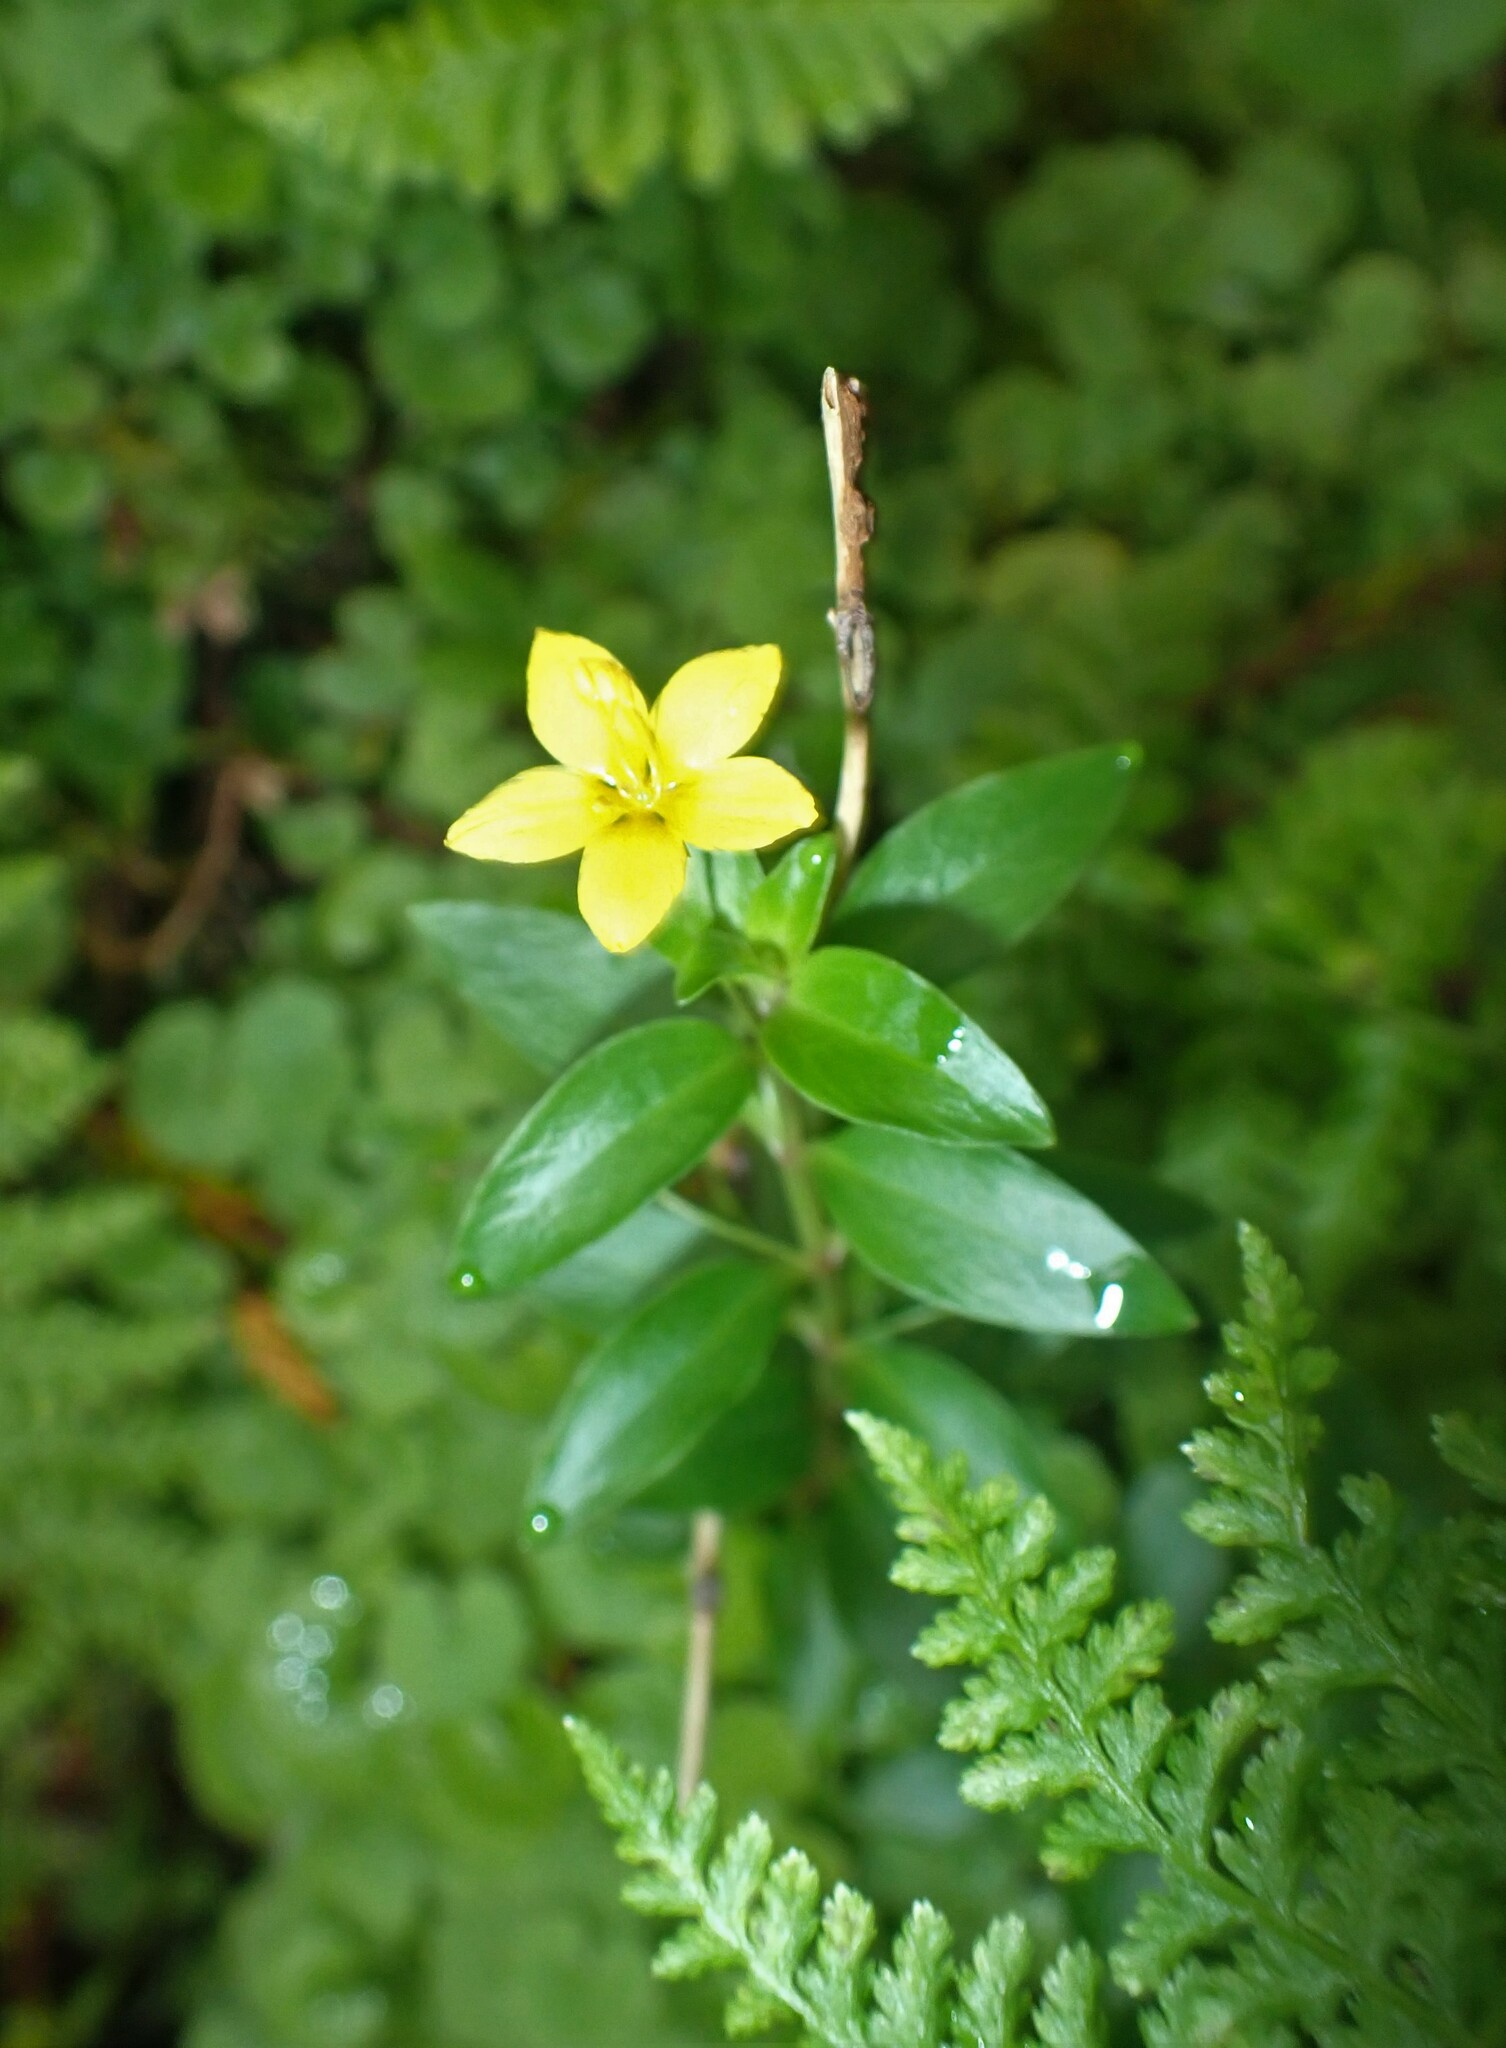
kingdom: Plantae
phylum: Tracheophyta
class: Magnoliopsida
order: Ericales
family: Primulaceae
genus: Lysimachia
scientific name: Lysimachia azorica
